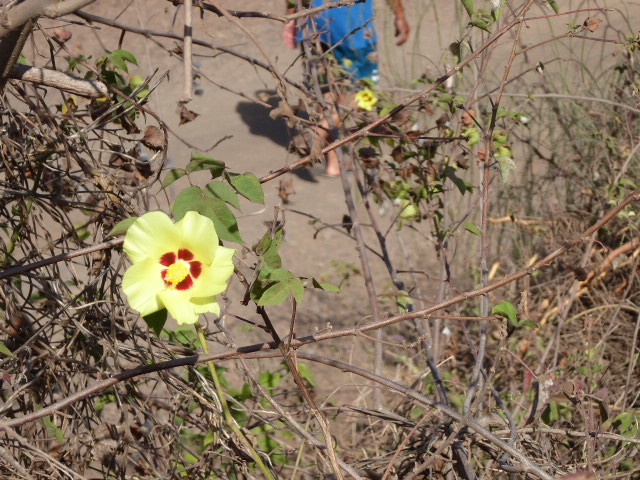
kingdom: Plantae
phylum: Tracheophyta
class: Magnoliopsida
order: Malvales
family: Malvaceae
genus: Gossypium
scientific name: Gossypium darwinii
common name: Darwin's cotton
